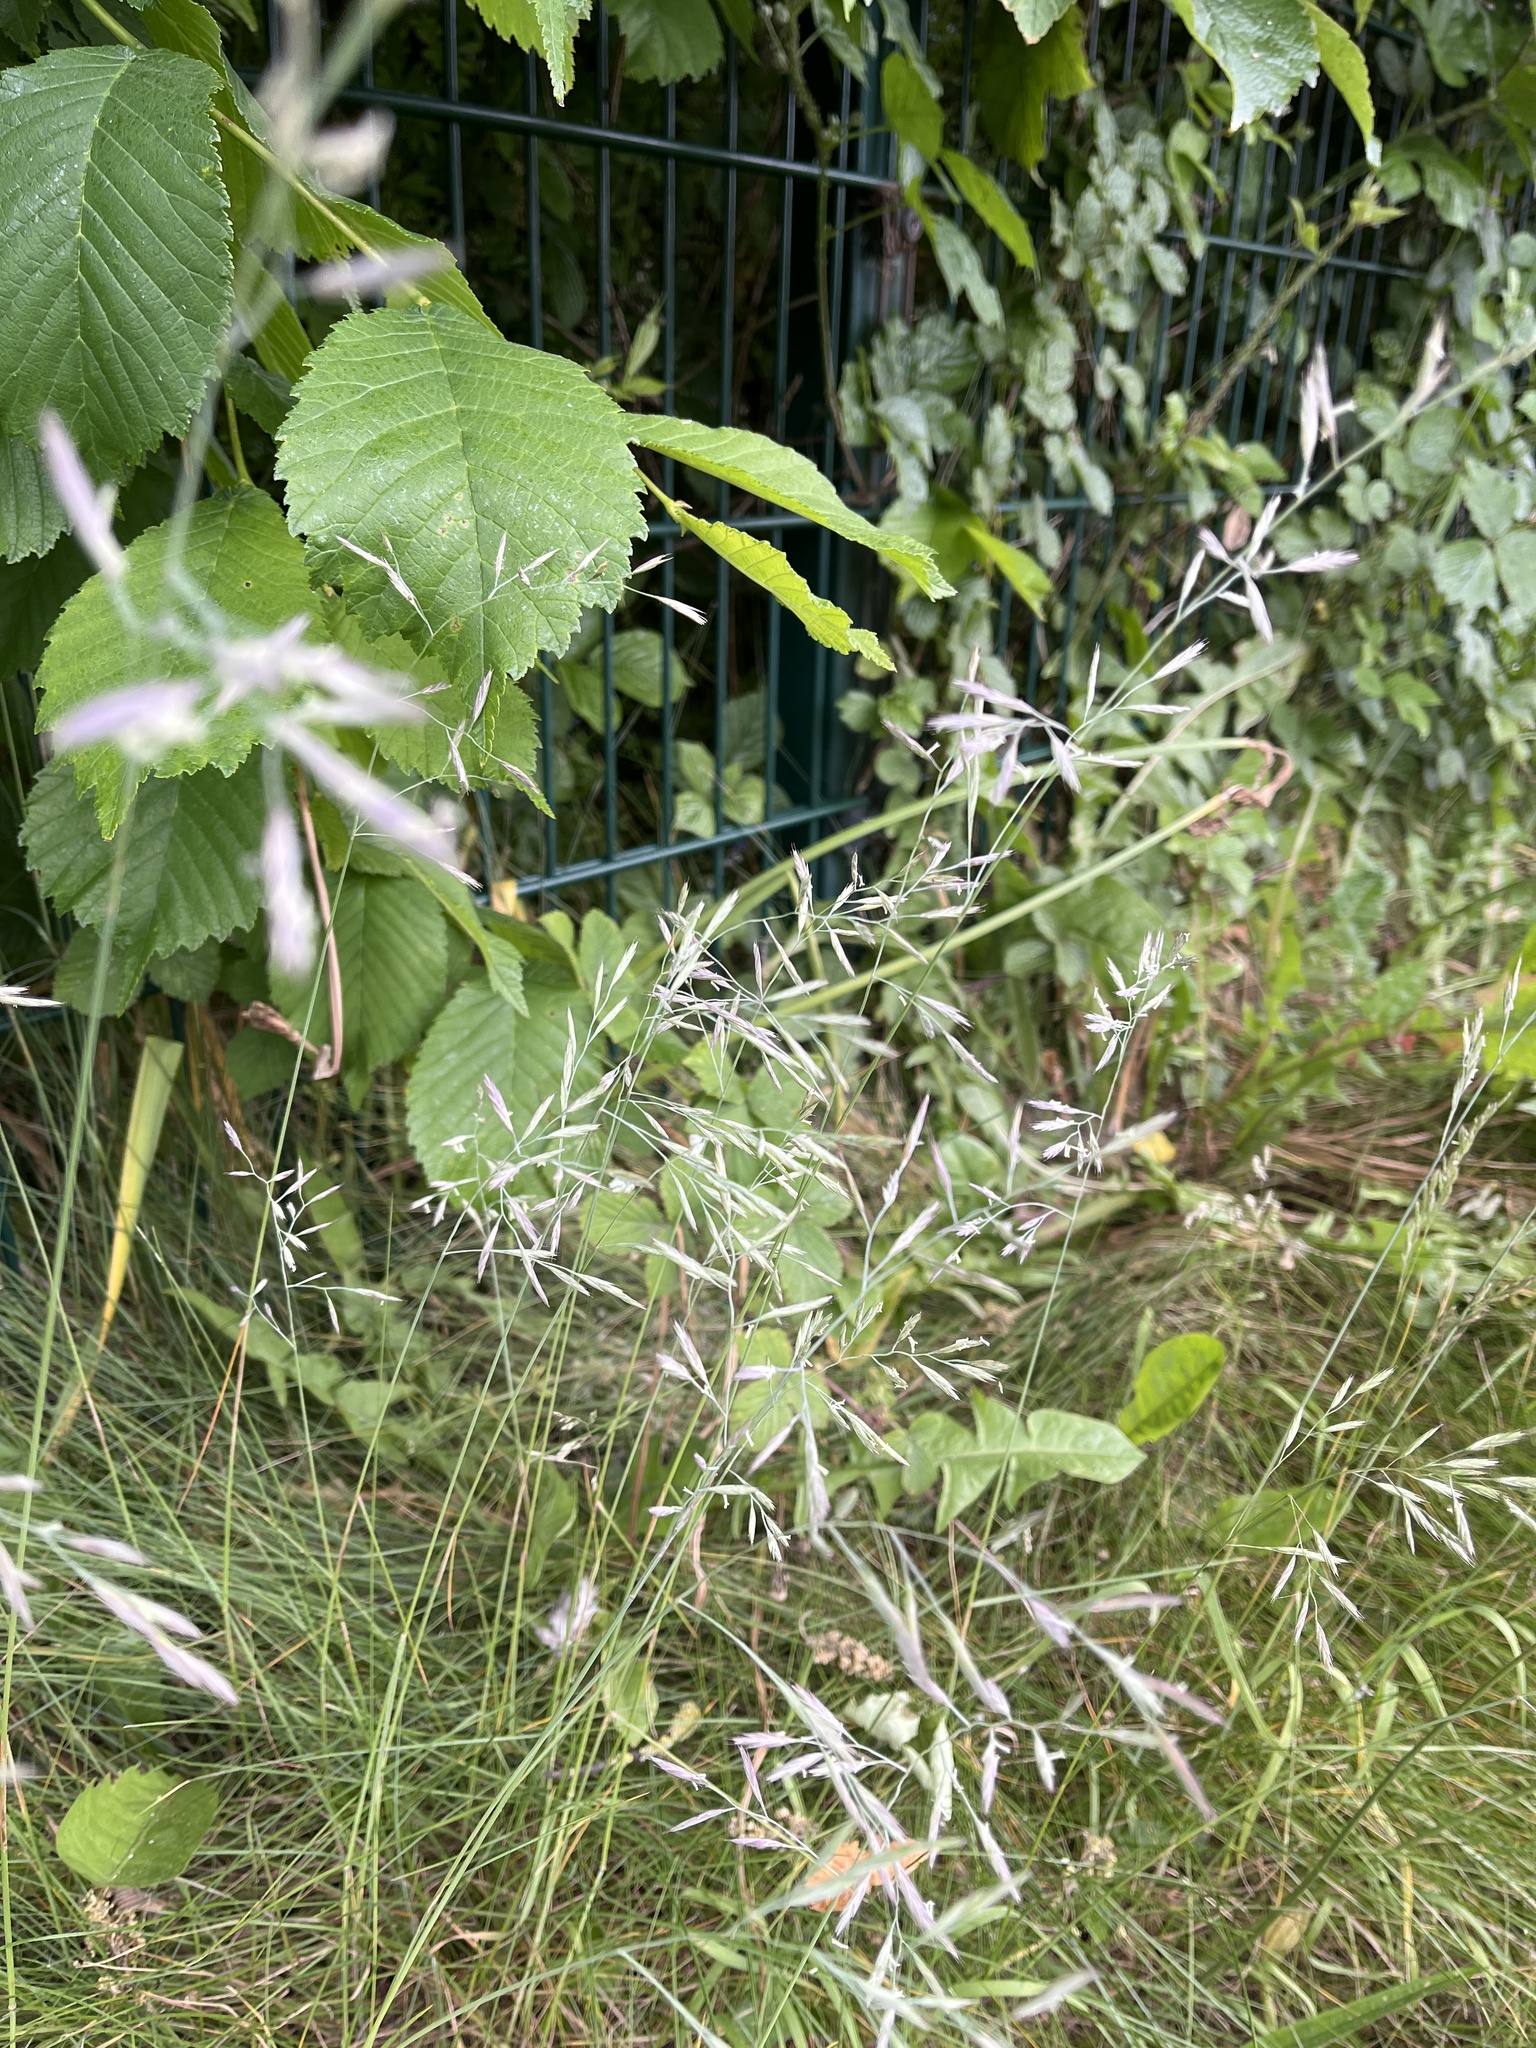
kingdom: Plantae
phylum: Tracheophyta
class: Liliopsida
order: Poales
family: Poaceae
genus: Festuca
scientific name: Festuca rubra
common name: Red fescue
